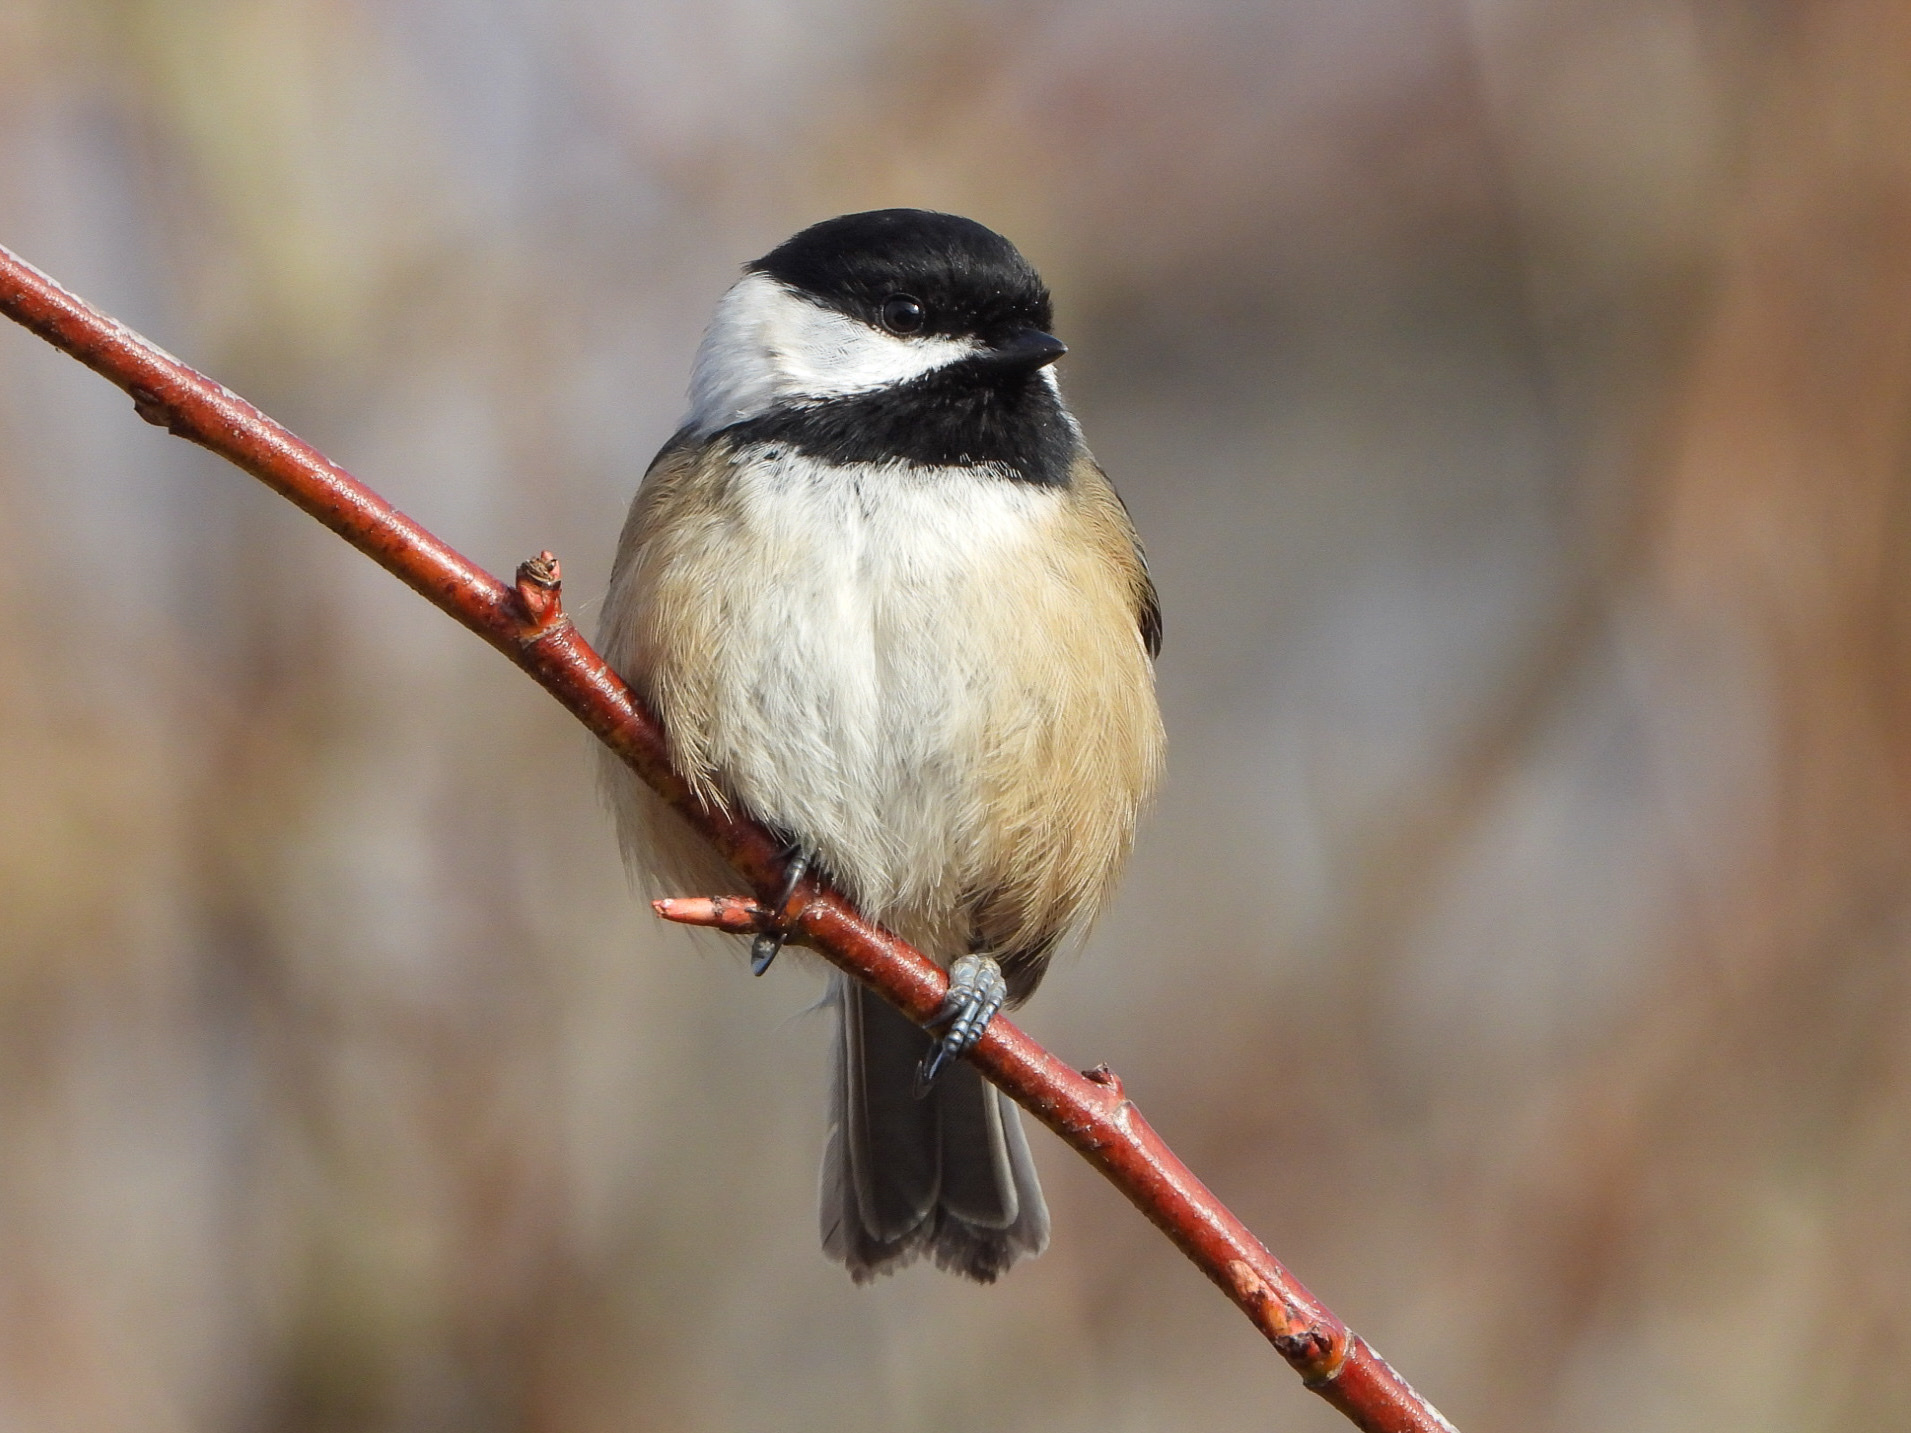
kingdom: Animalia
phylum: Chordata
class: Aves
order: Passeriformes
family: Paridae
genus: Poecile
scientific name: Poecile atricapillus
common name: Black-capped chickadee
